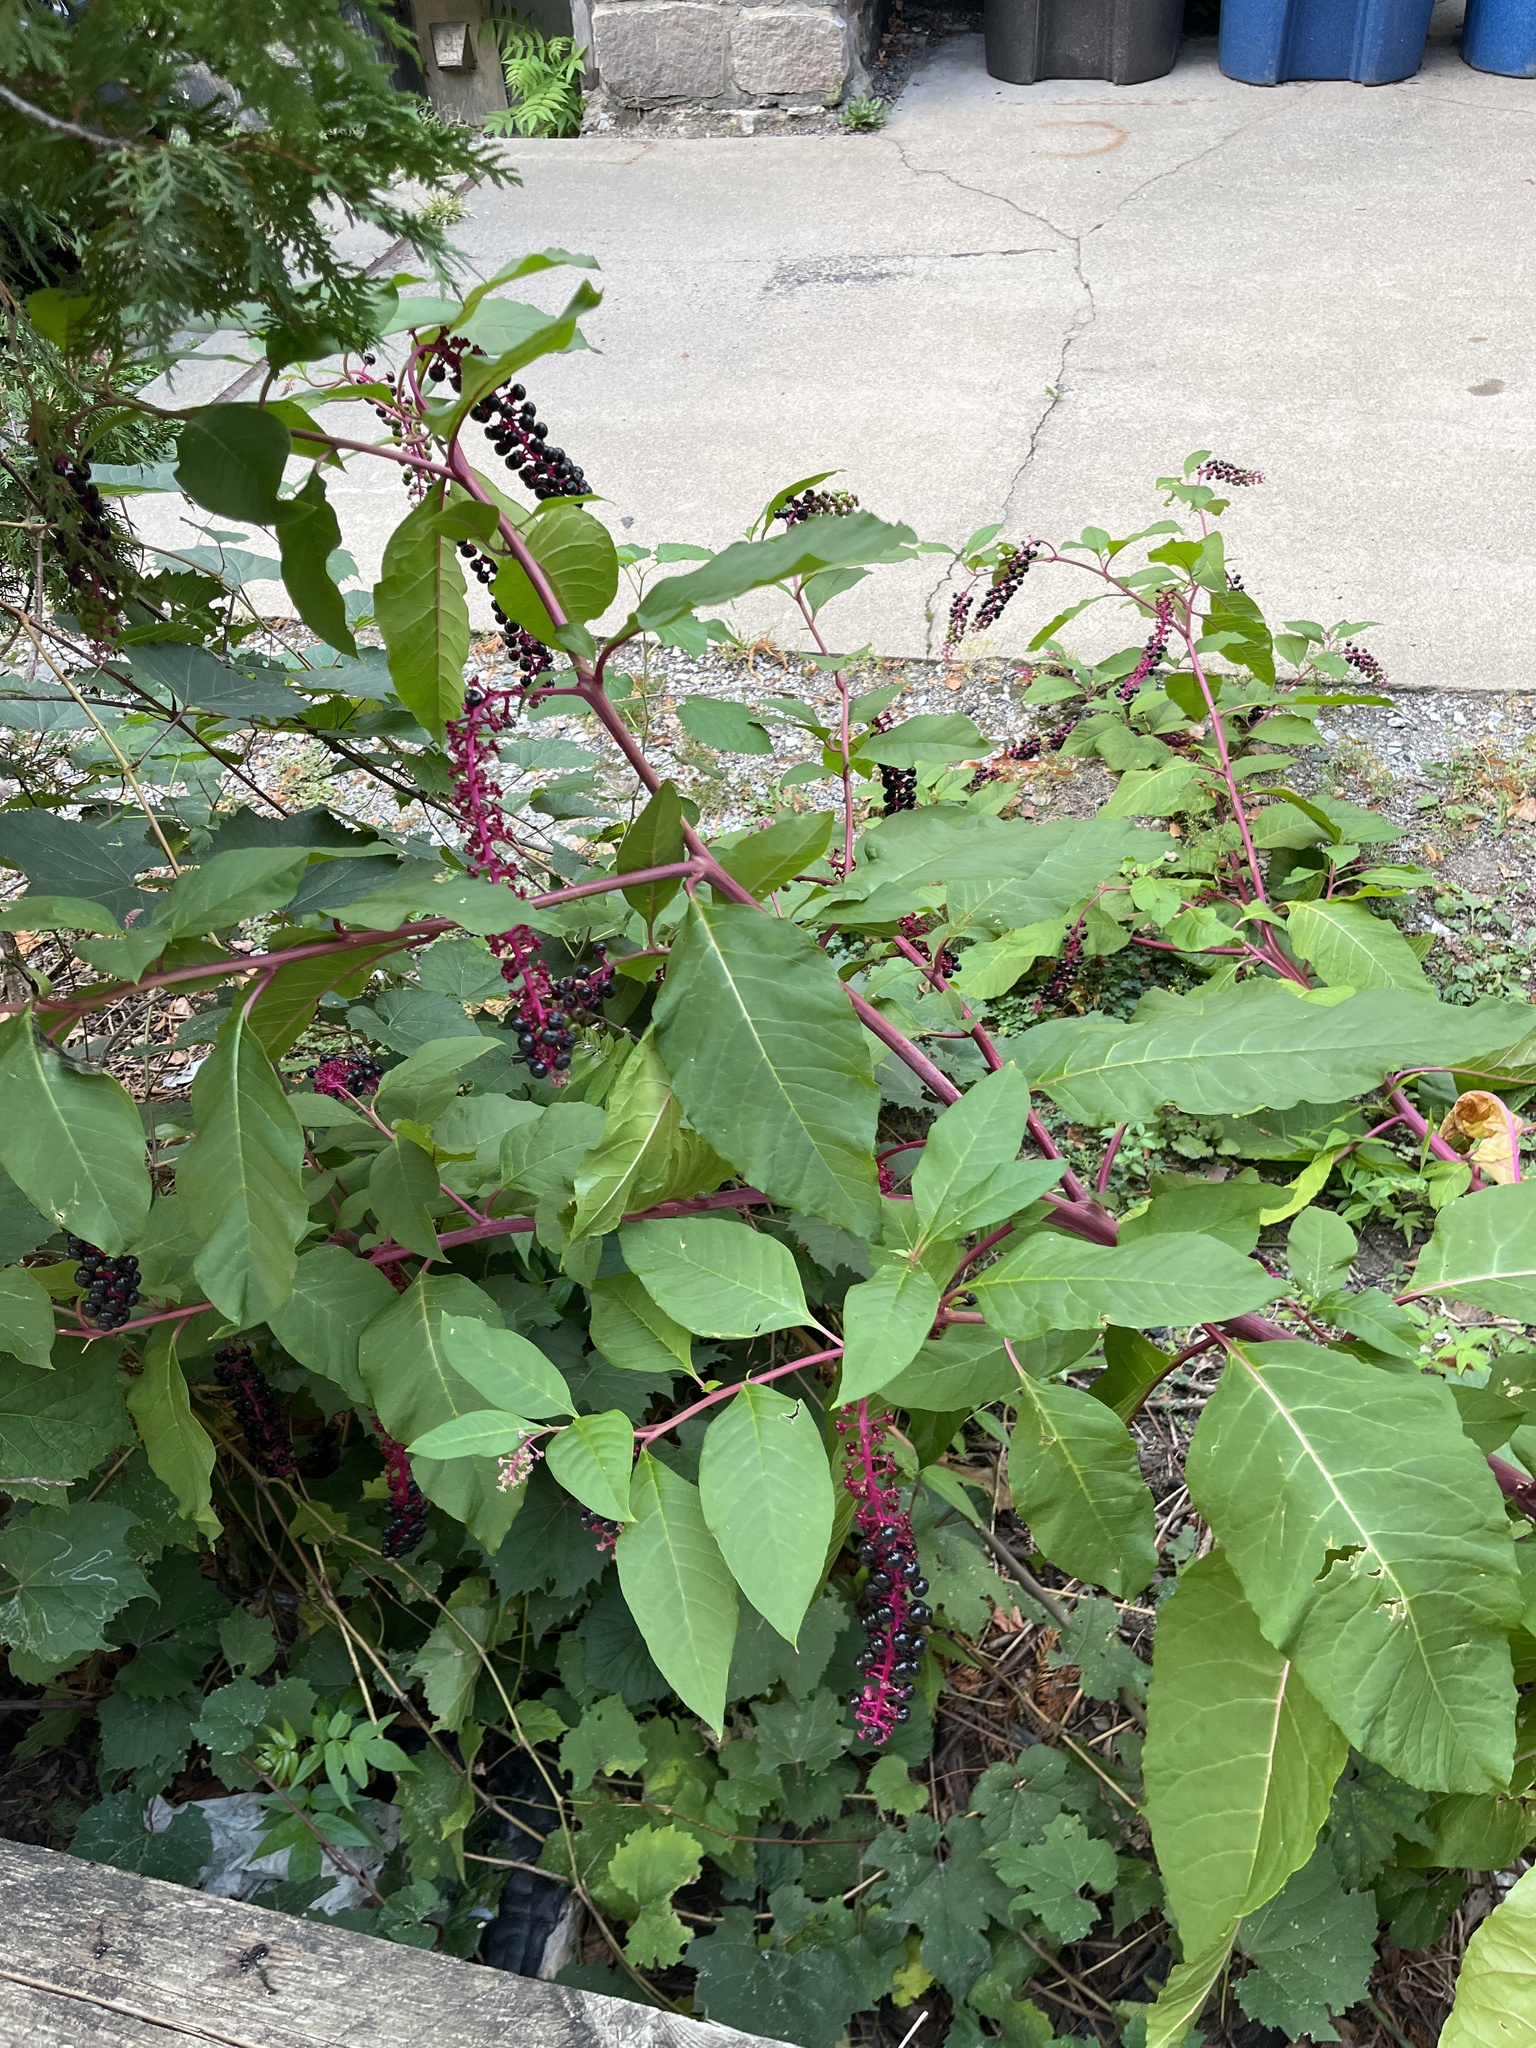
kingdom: Plantae
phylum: Tracheophyta
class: Magnoliopsida
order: Caryophyllales
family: Phytolaccaceae
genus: Phytolacca
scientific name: Phytolacca americana
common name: American pokeweed
